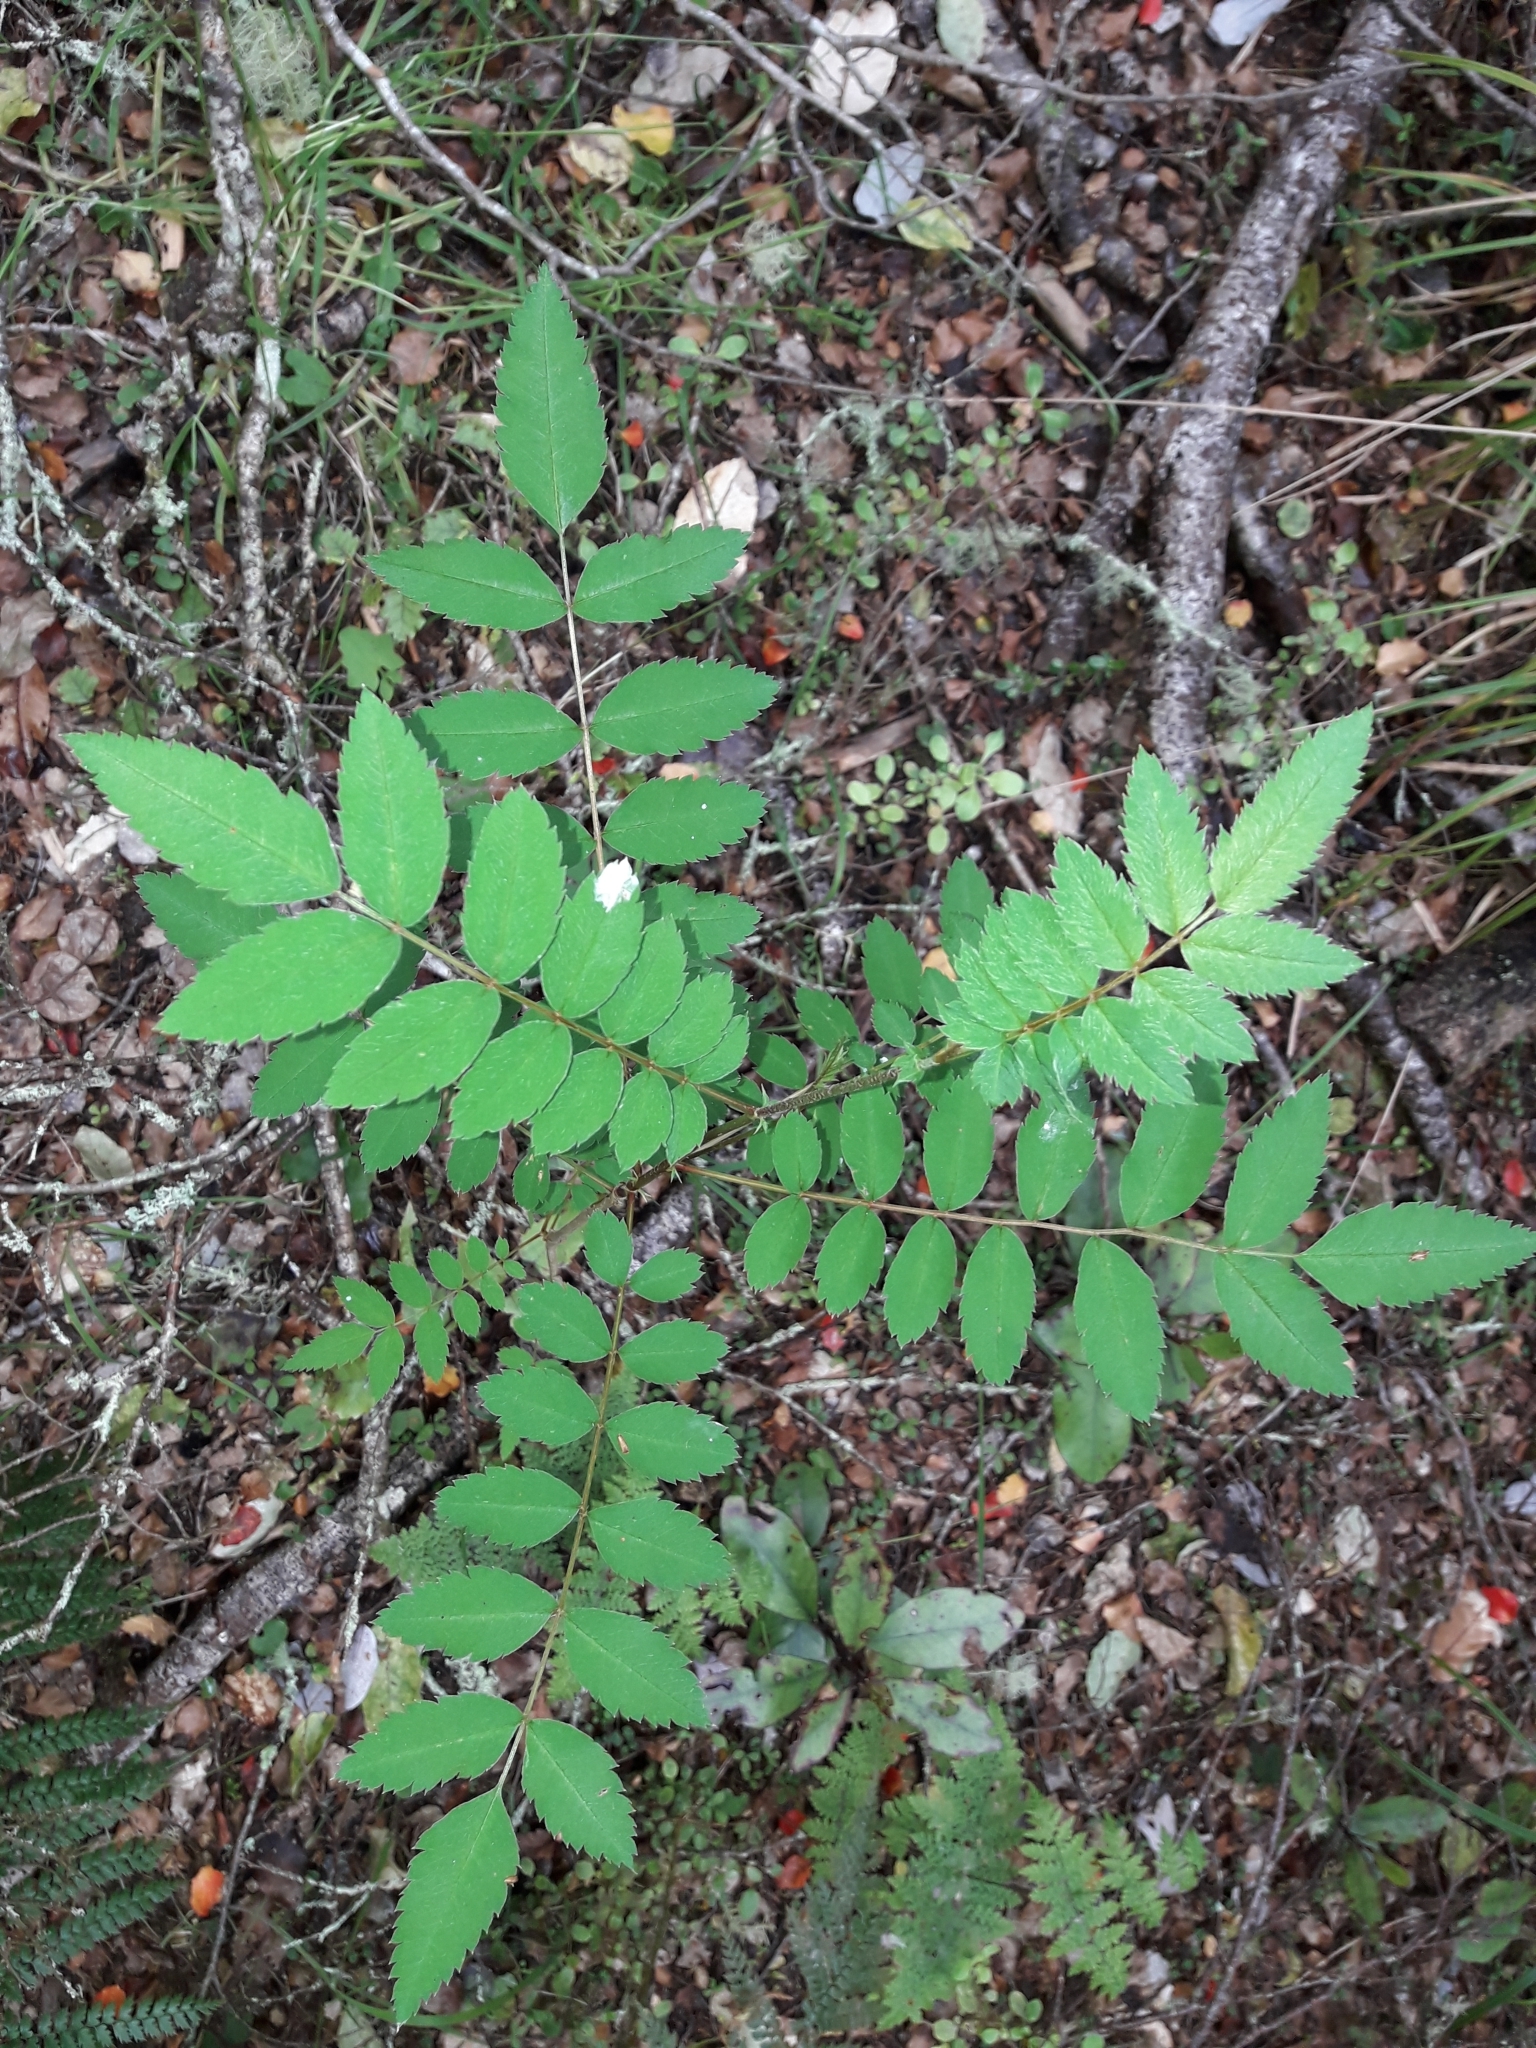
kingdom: Plantae
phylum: Tracheophyta
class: Magnoliopsida
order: Rosales
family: Rosaceae
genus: Sorbus
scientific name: Sorbus aucuparia
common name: Rowan
